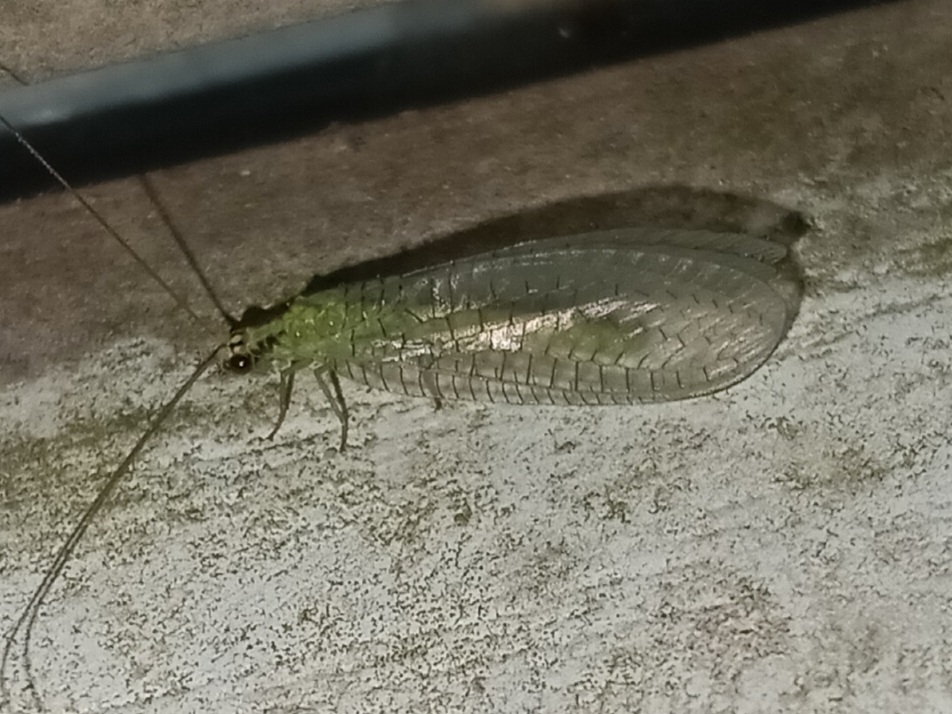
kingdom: Animalia
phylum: Arthropoda
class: Insecta
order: Neuroptera
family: Chrysopidae
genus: Chrysopa
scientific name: Chrysopa incompleta
